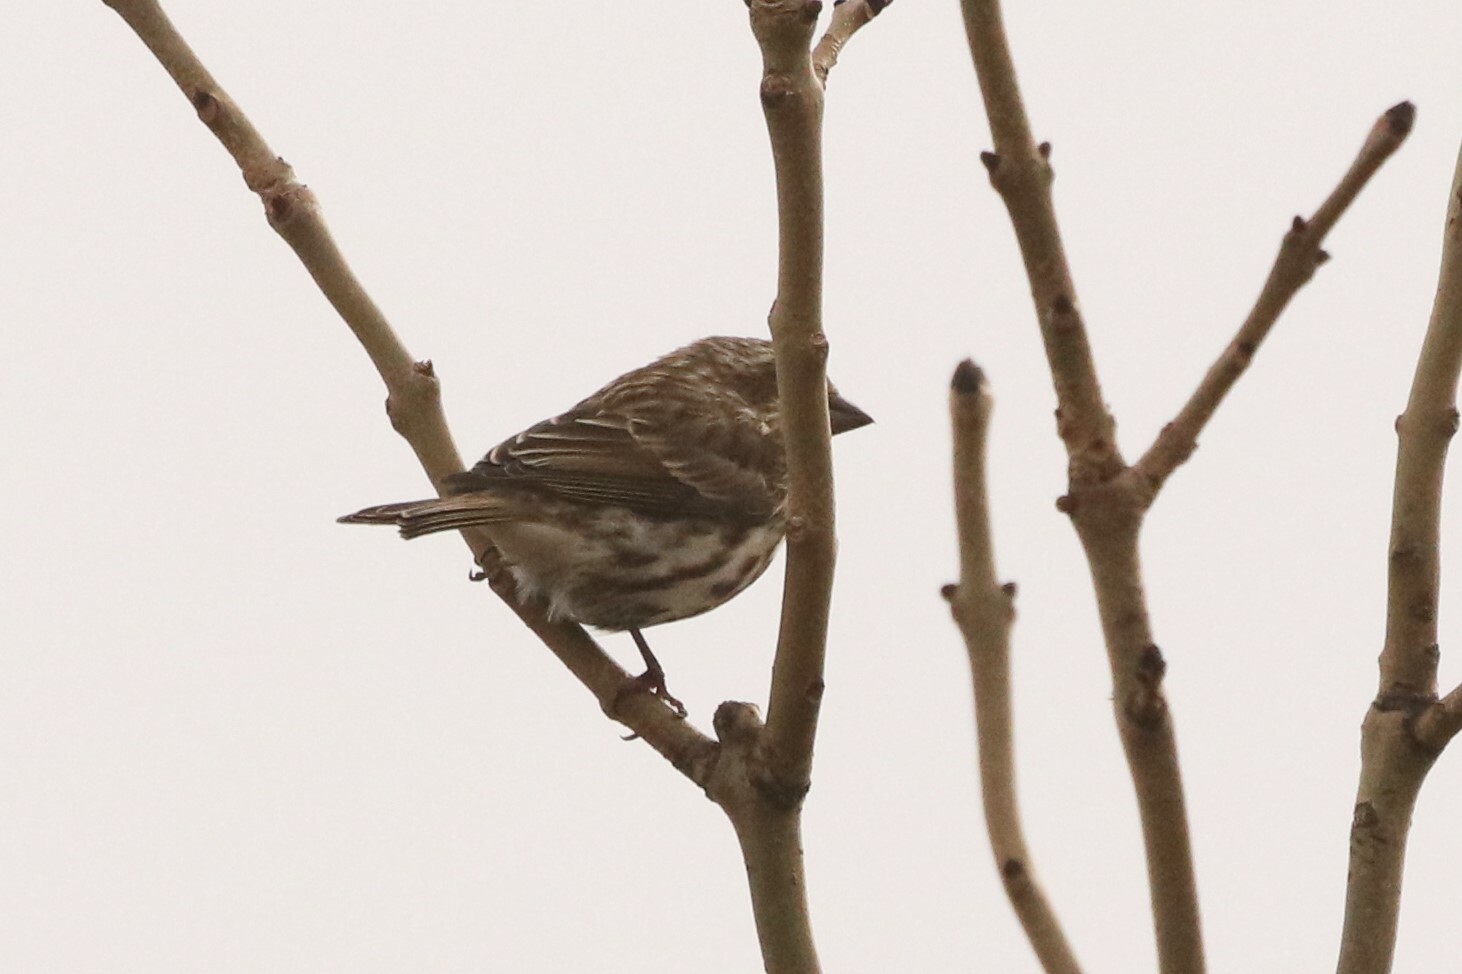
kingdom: Animalia
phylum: Chordata
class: Aves
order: Passeriformes
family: Fringillidae
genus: Haemorhous
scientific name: Haemorhous purpureus
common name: Purple finch
